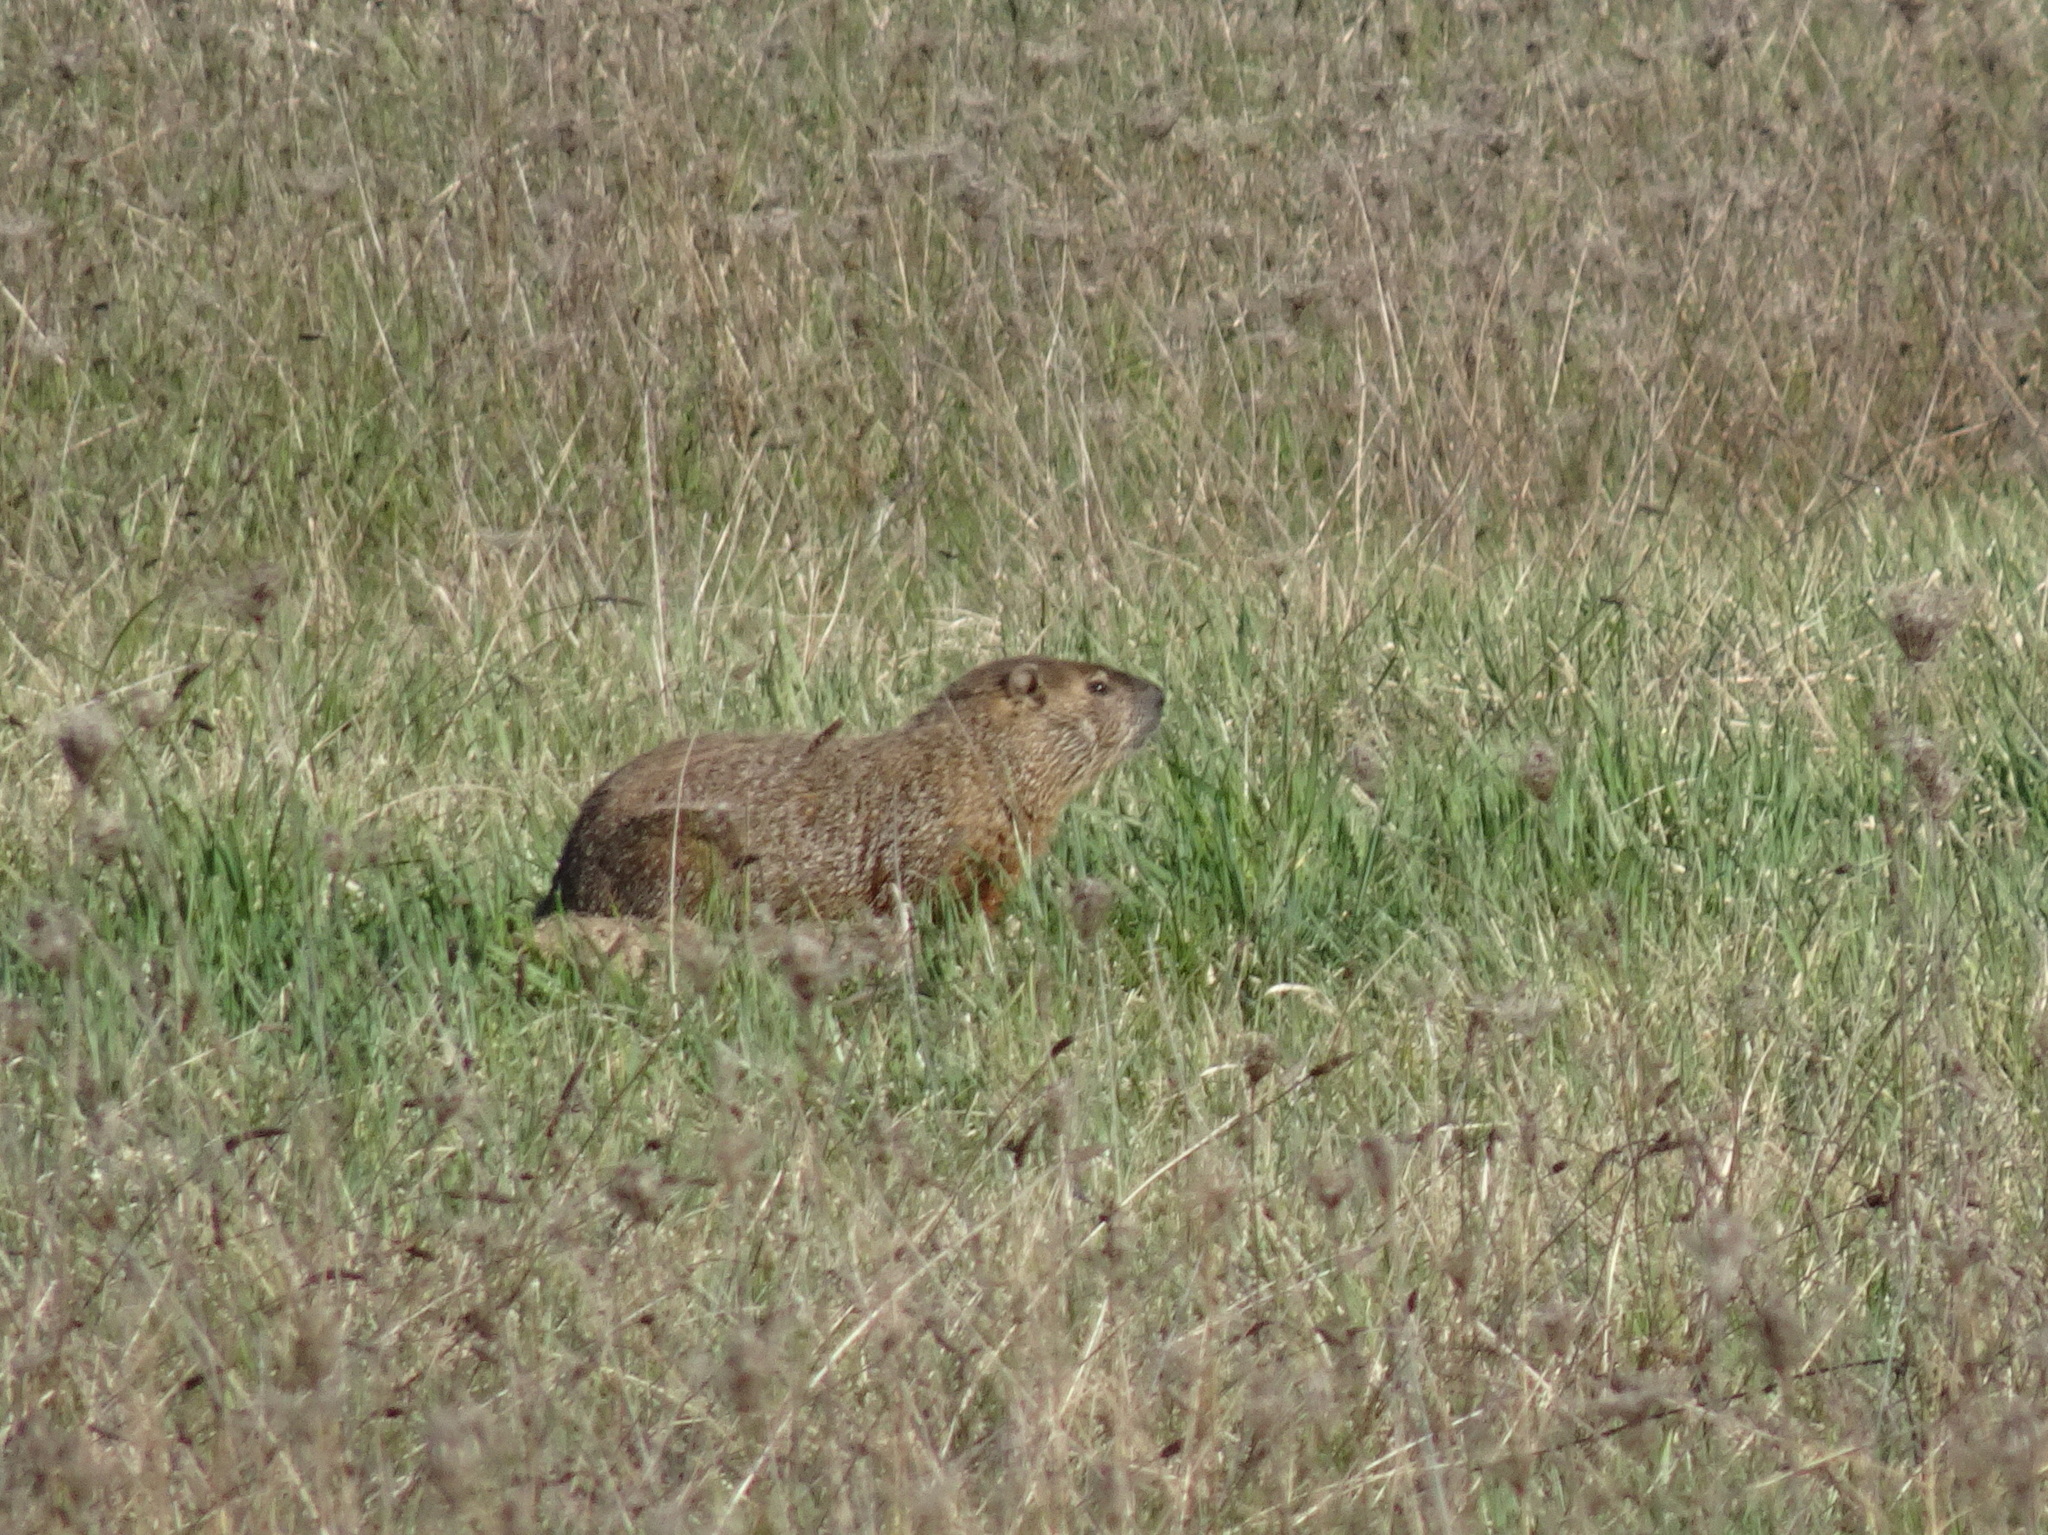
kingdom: Animalia
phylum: Chordata
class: Mammalia
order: Rodentia
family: Sciuridae
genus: Marmota
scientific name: Marmota monax
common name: Groundhog
